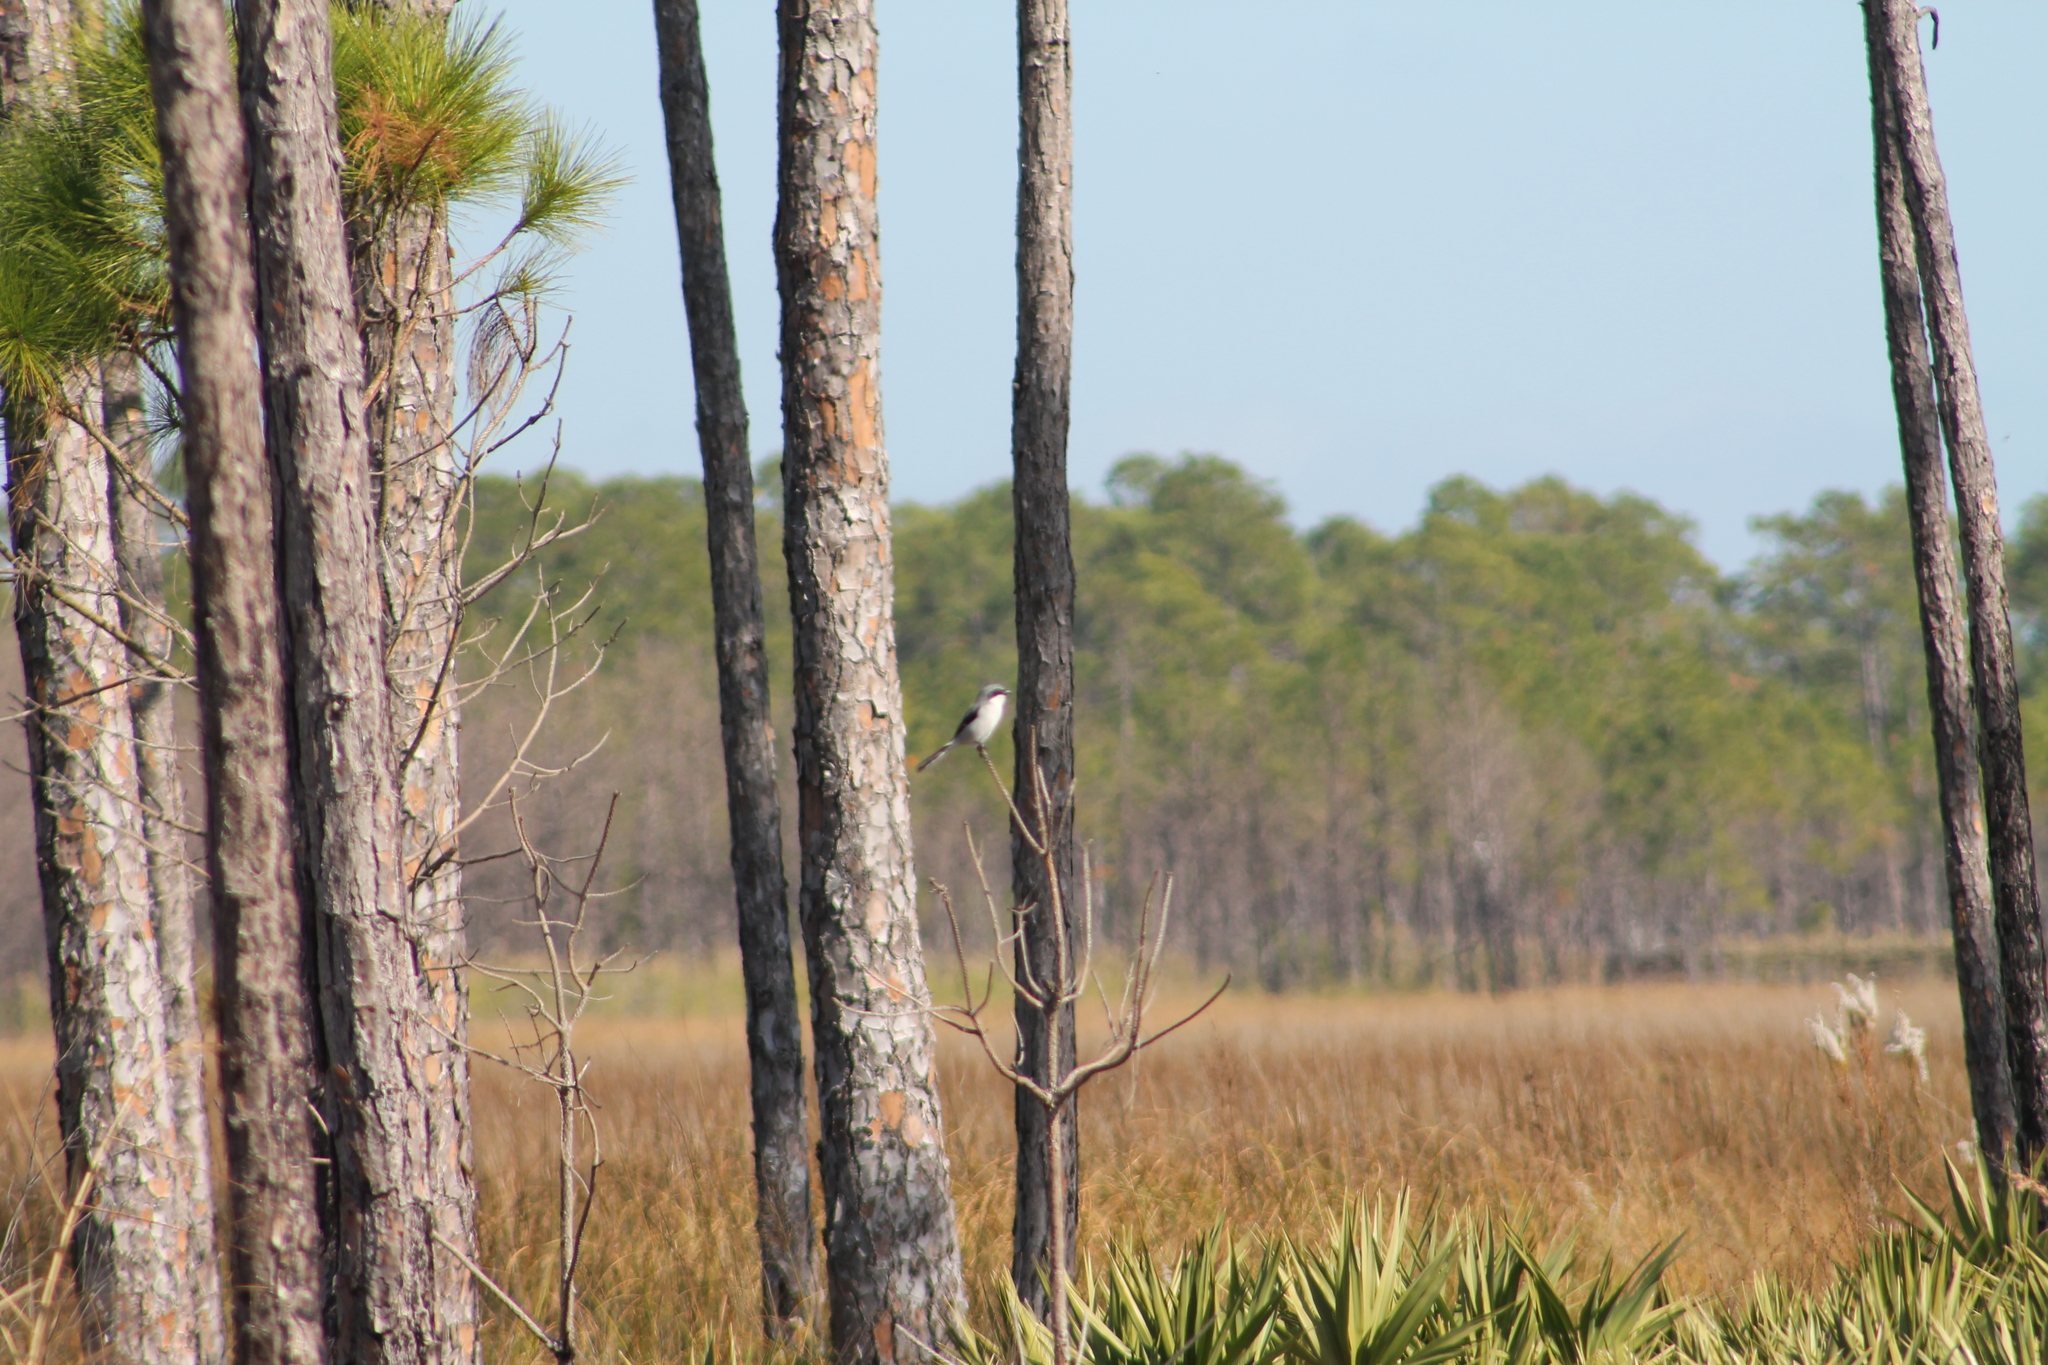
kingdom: Animalia
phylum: Chordata
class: Aves
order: Passeriformes
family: Laniidae
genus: Lanius
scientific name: Lanius ludovicianus
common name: Loggerhead shrike
